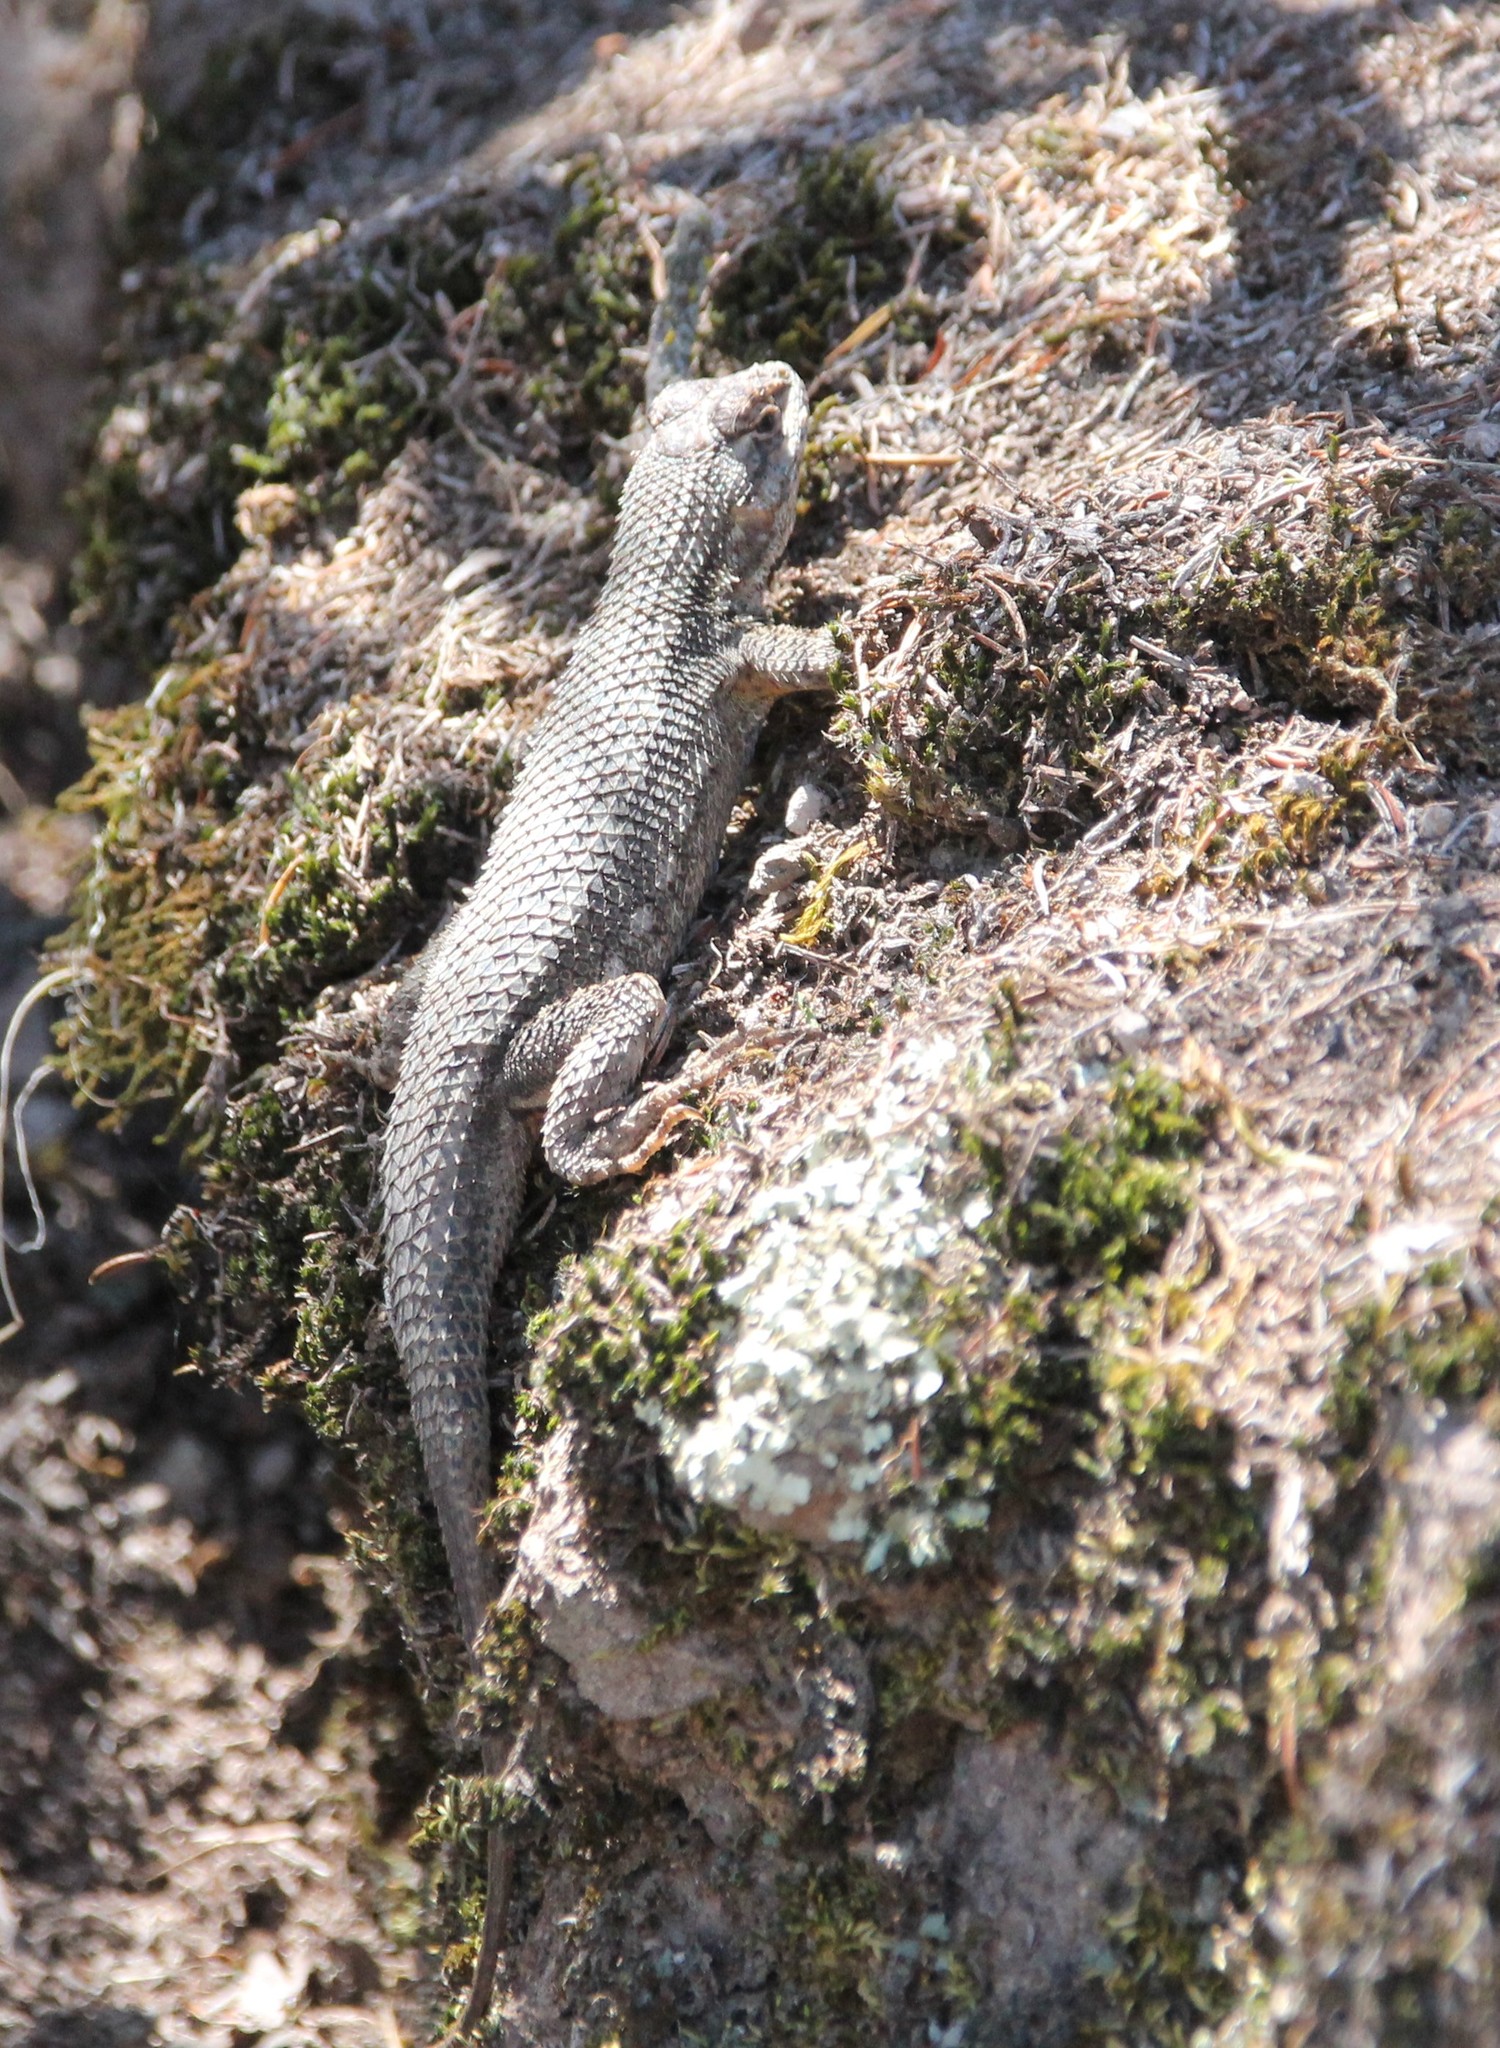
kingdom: Animalia
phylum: Chordata
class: Squamata
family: Phrynosomatidae
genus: Sceloporus
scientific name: Sceloporus occidentalis
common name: Western fence lizard
